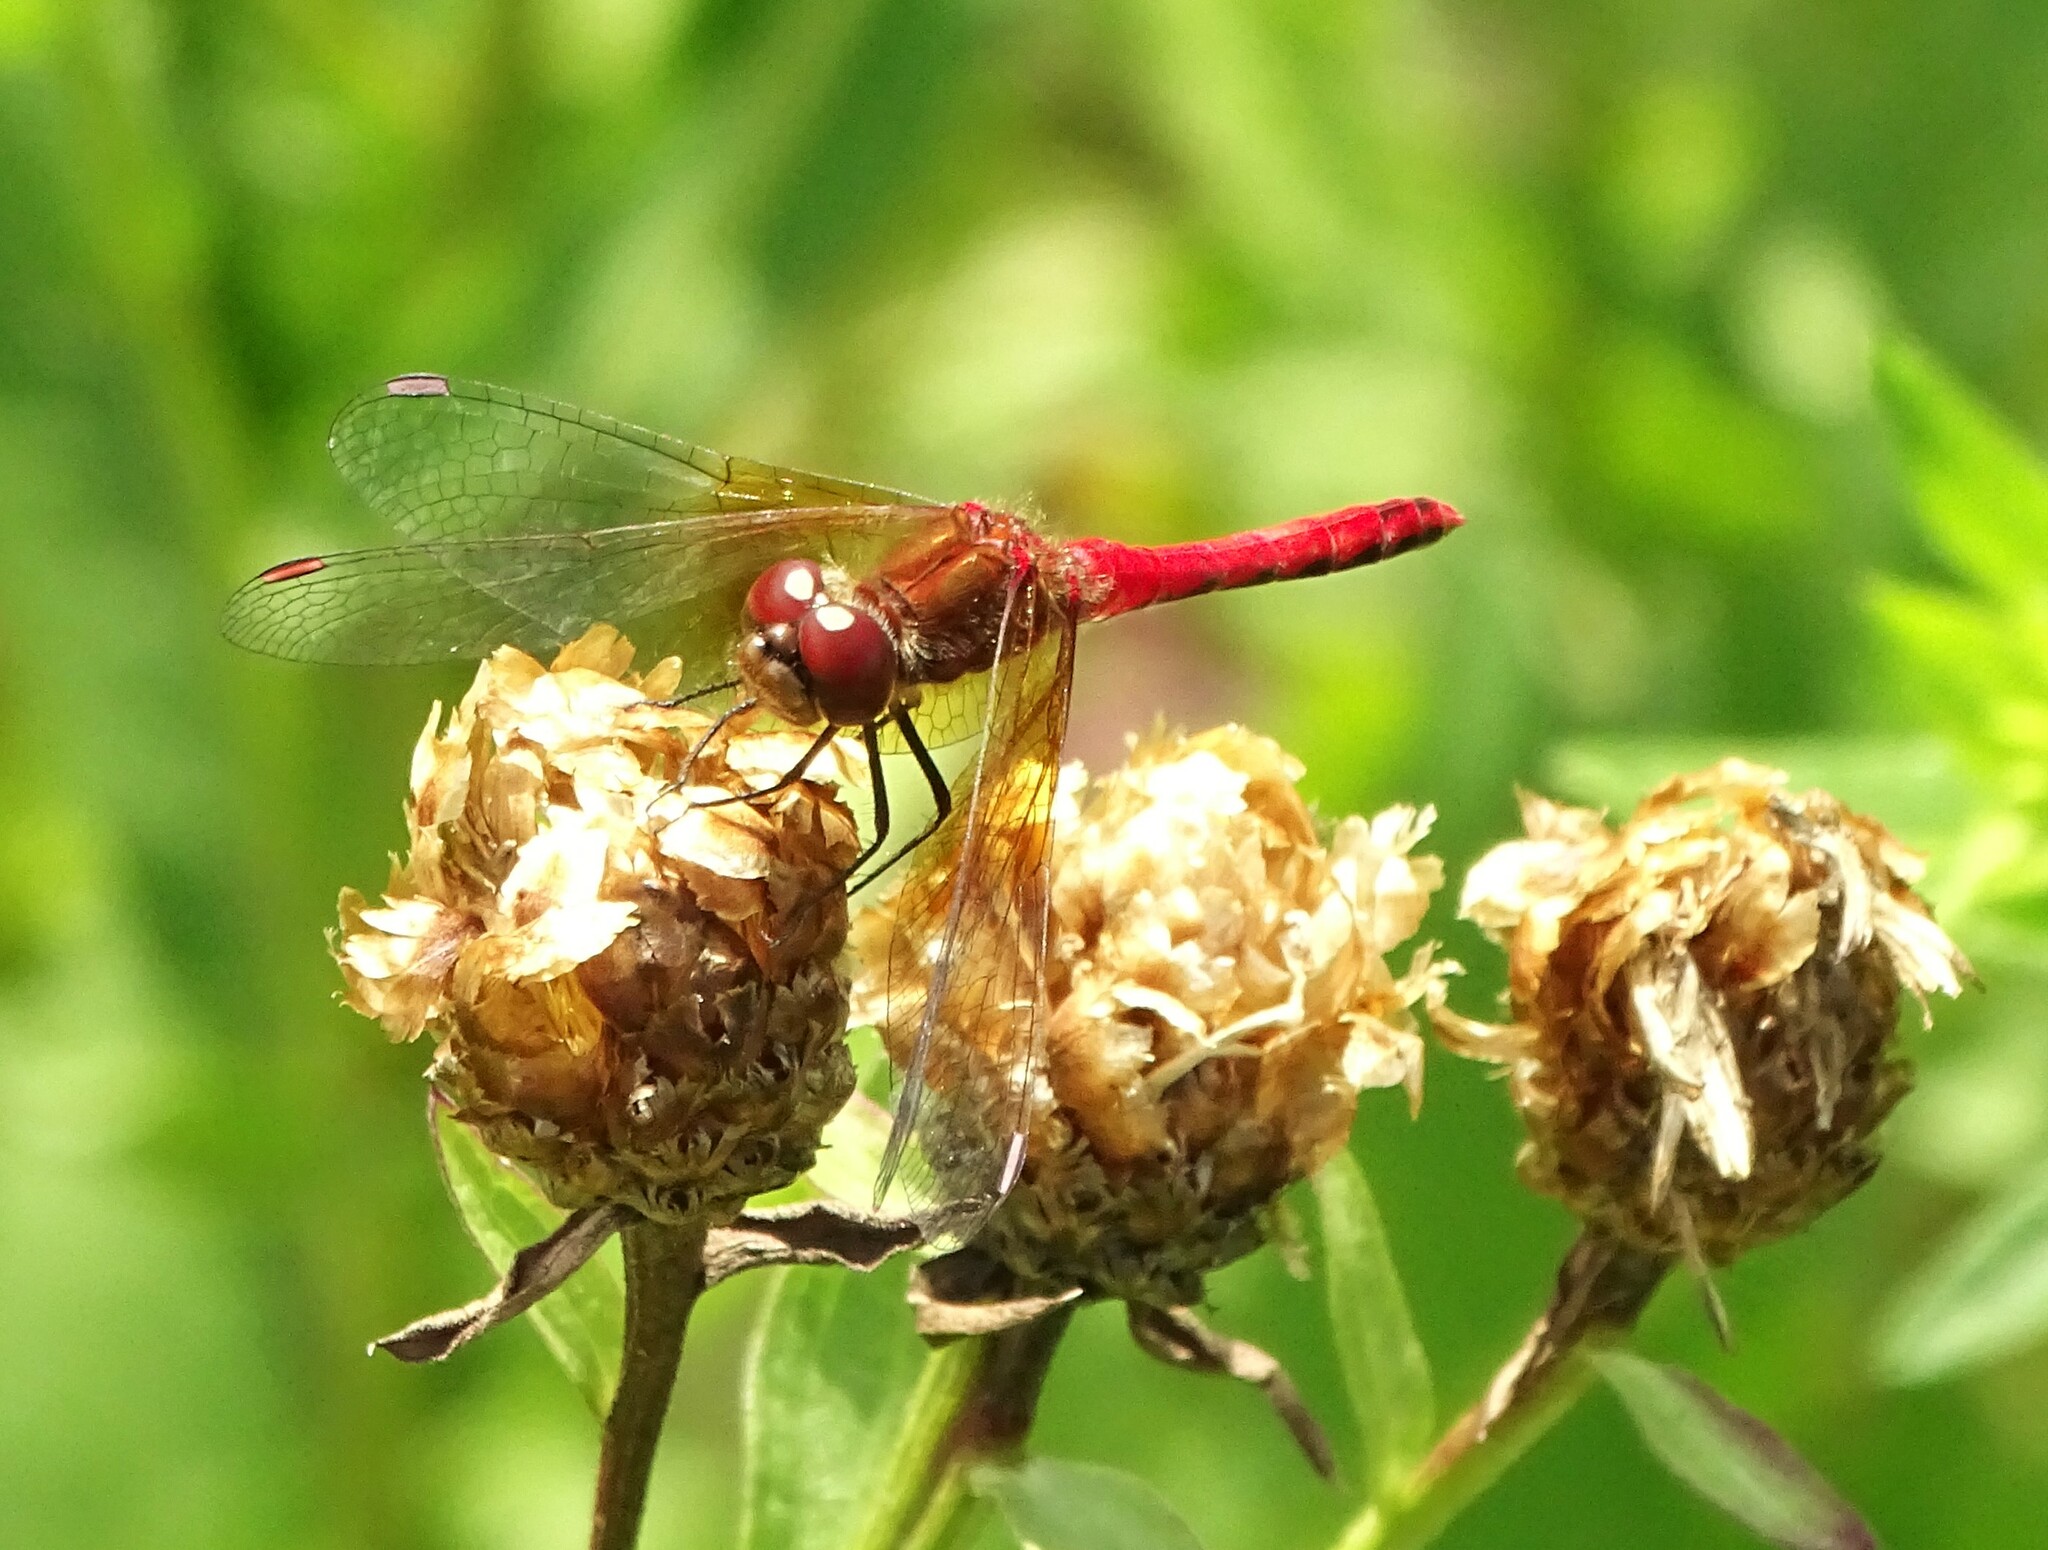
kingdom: Animalia
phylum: Arthropoda
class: Insecta
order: Odonata
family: Libellulidae
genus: Sympetrum
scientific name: Sympetrum semicinctum
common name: Band-winged meadowhawk
